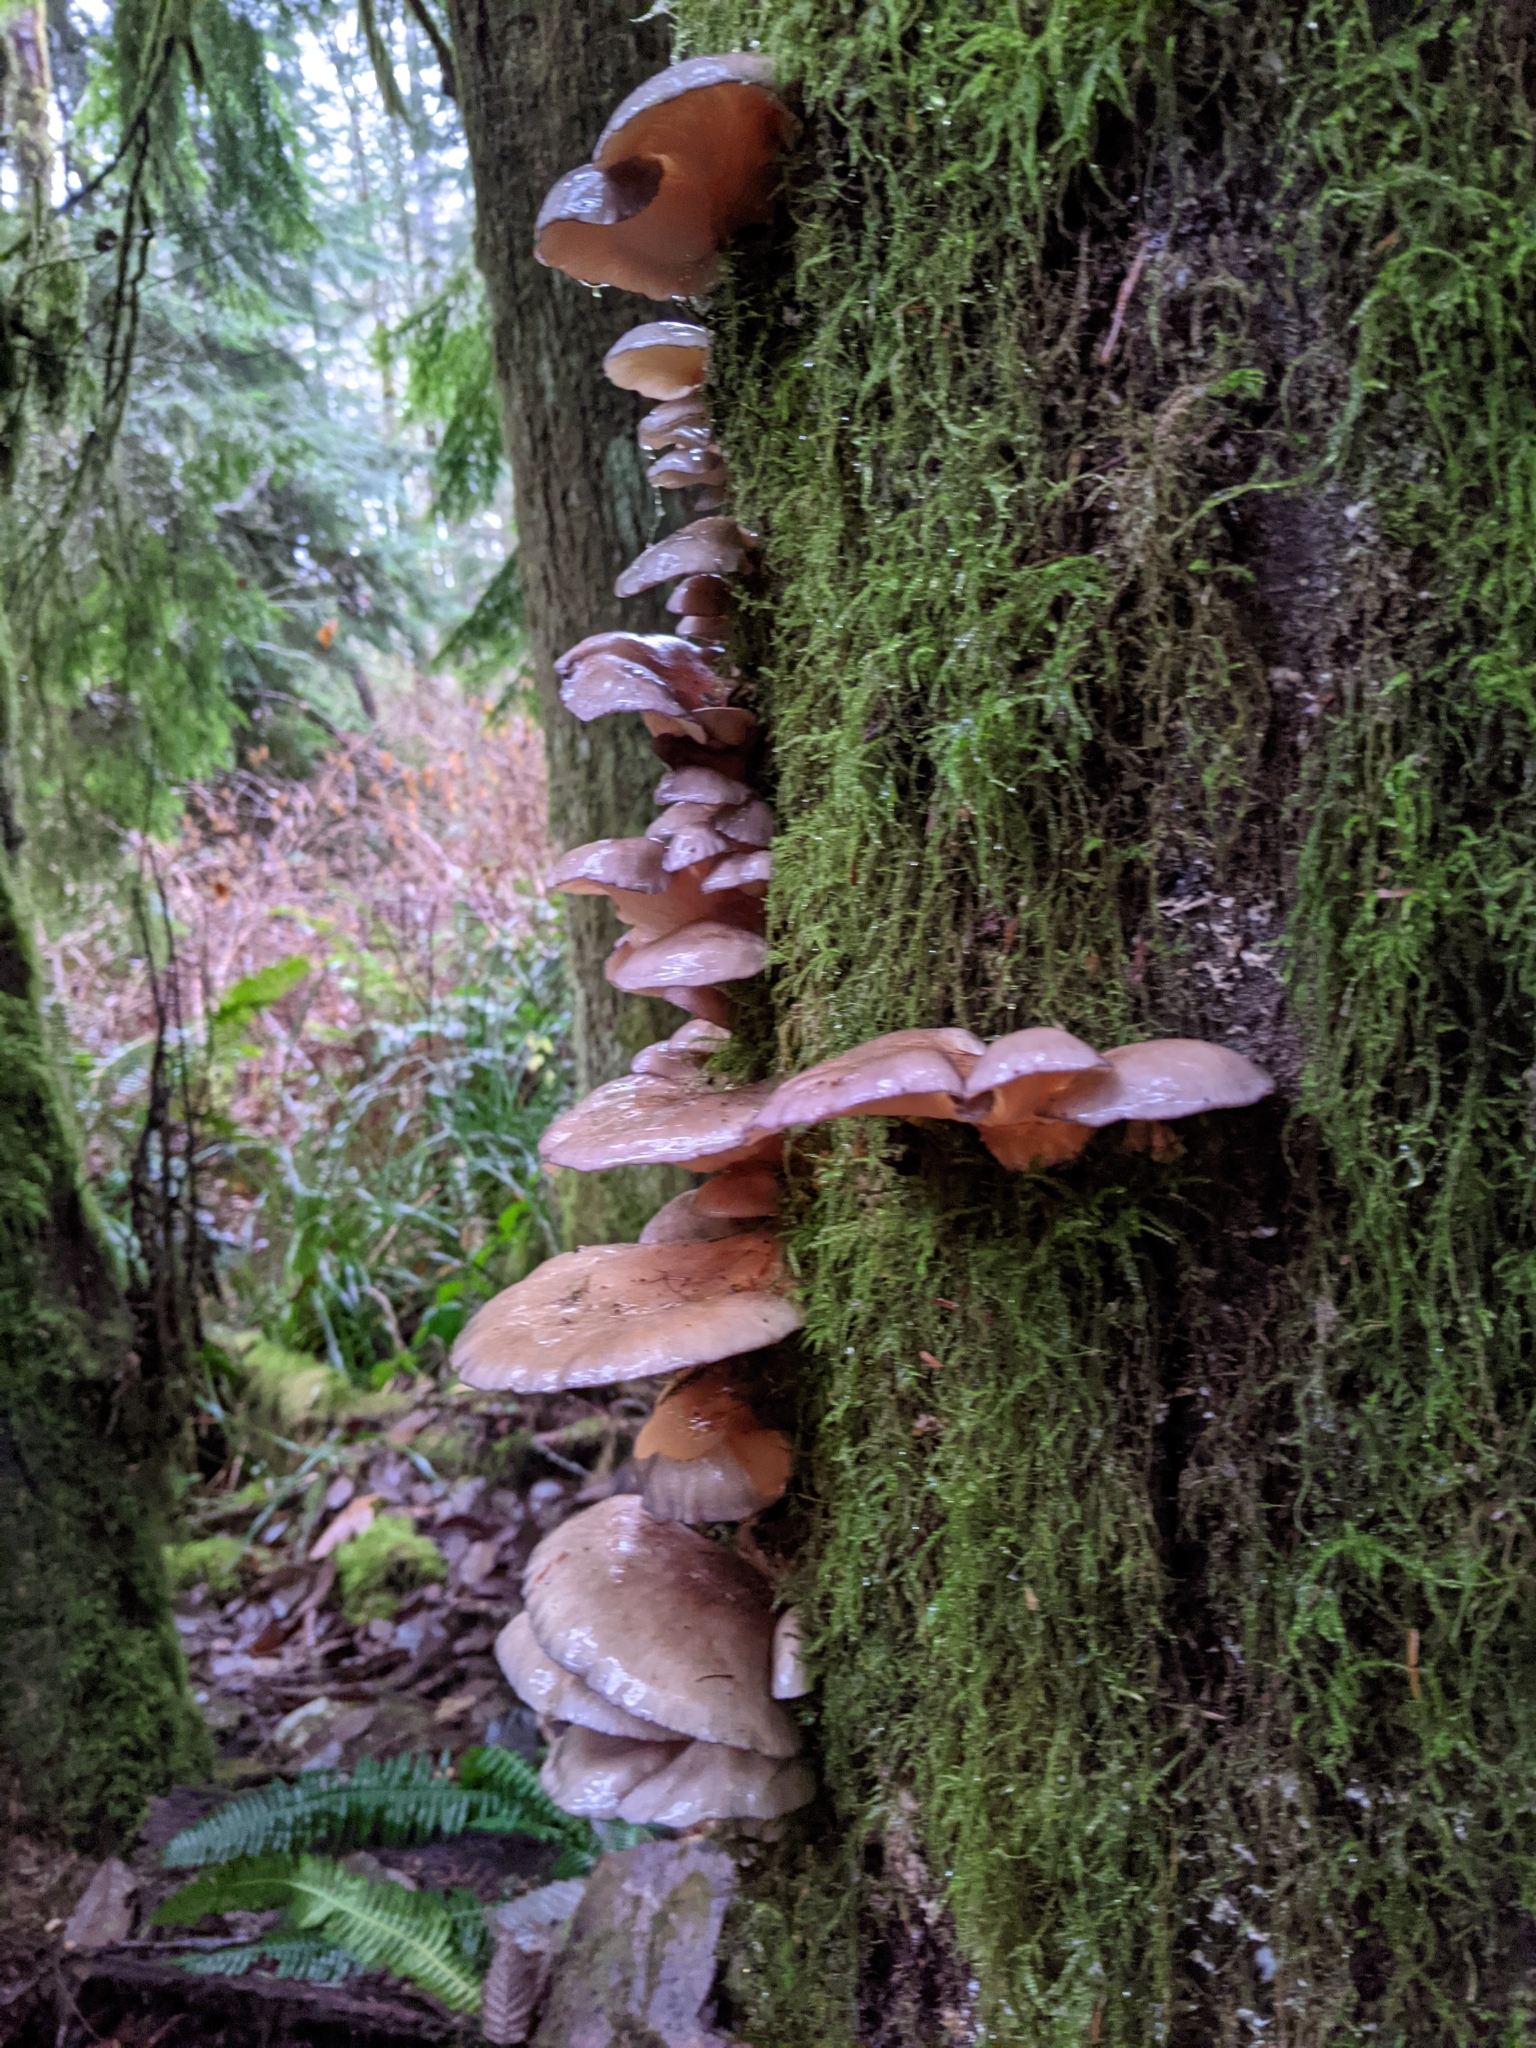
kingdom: Fungi
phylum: Basidiomycota
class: Agaricomycetes
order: Agaricales
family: Sarcomyxaceae
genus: Sarcomyxa
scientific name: Sarcomyxa serotina
